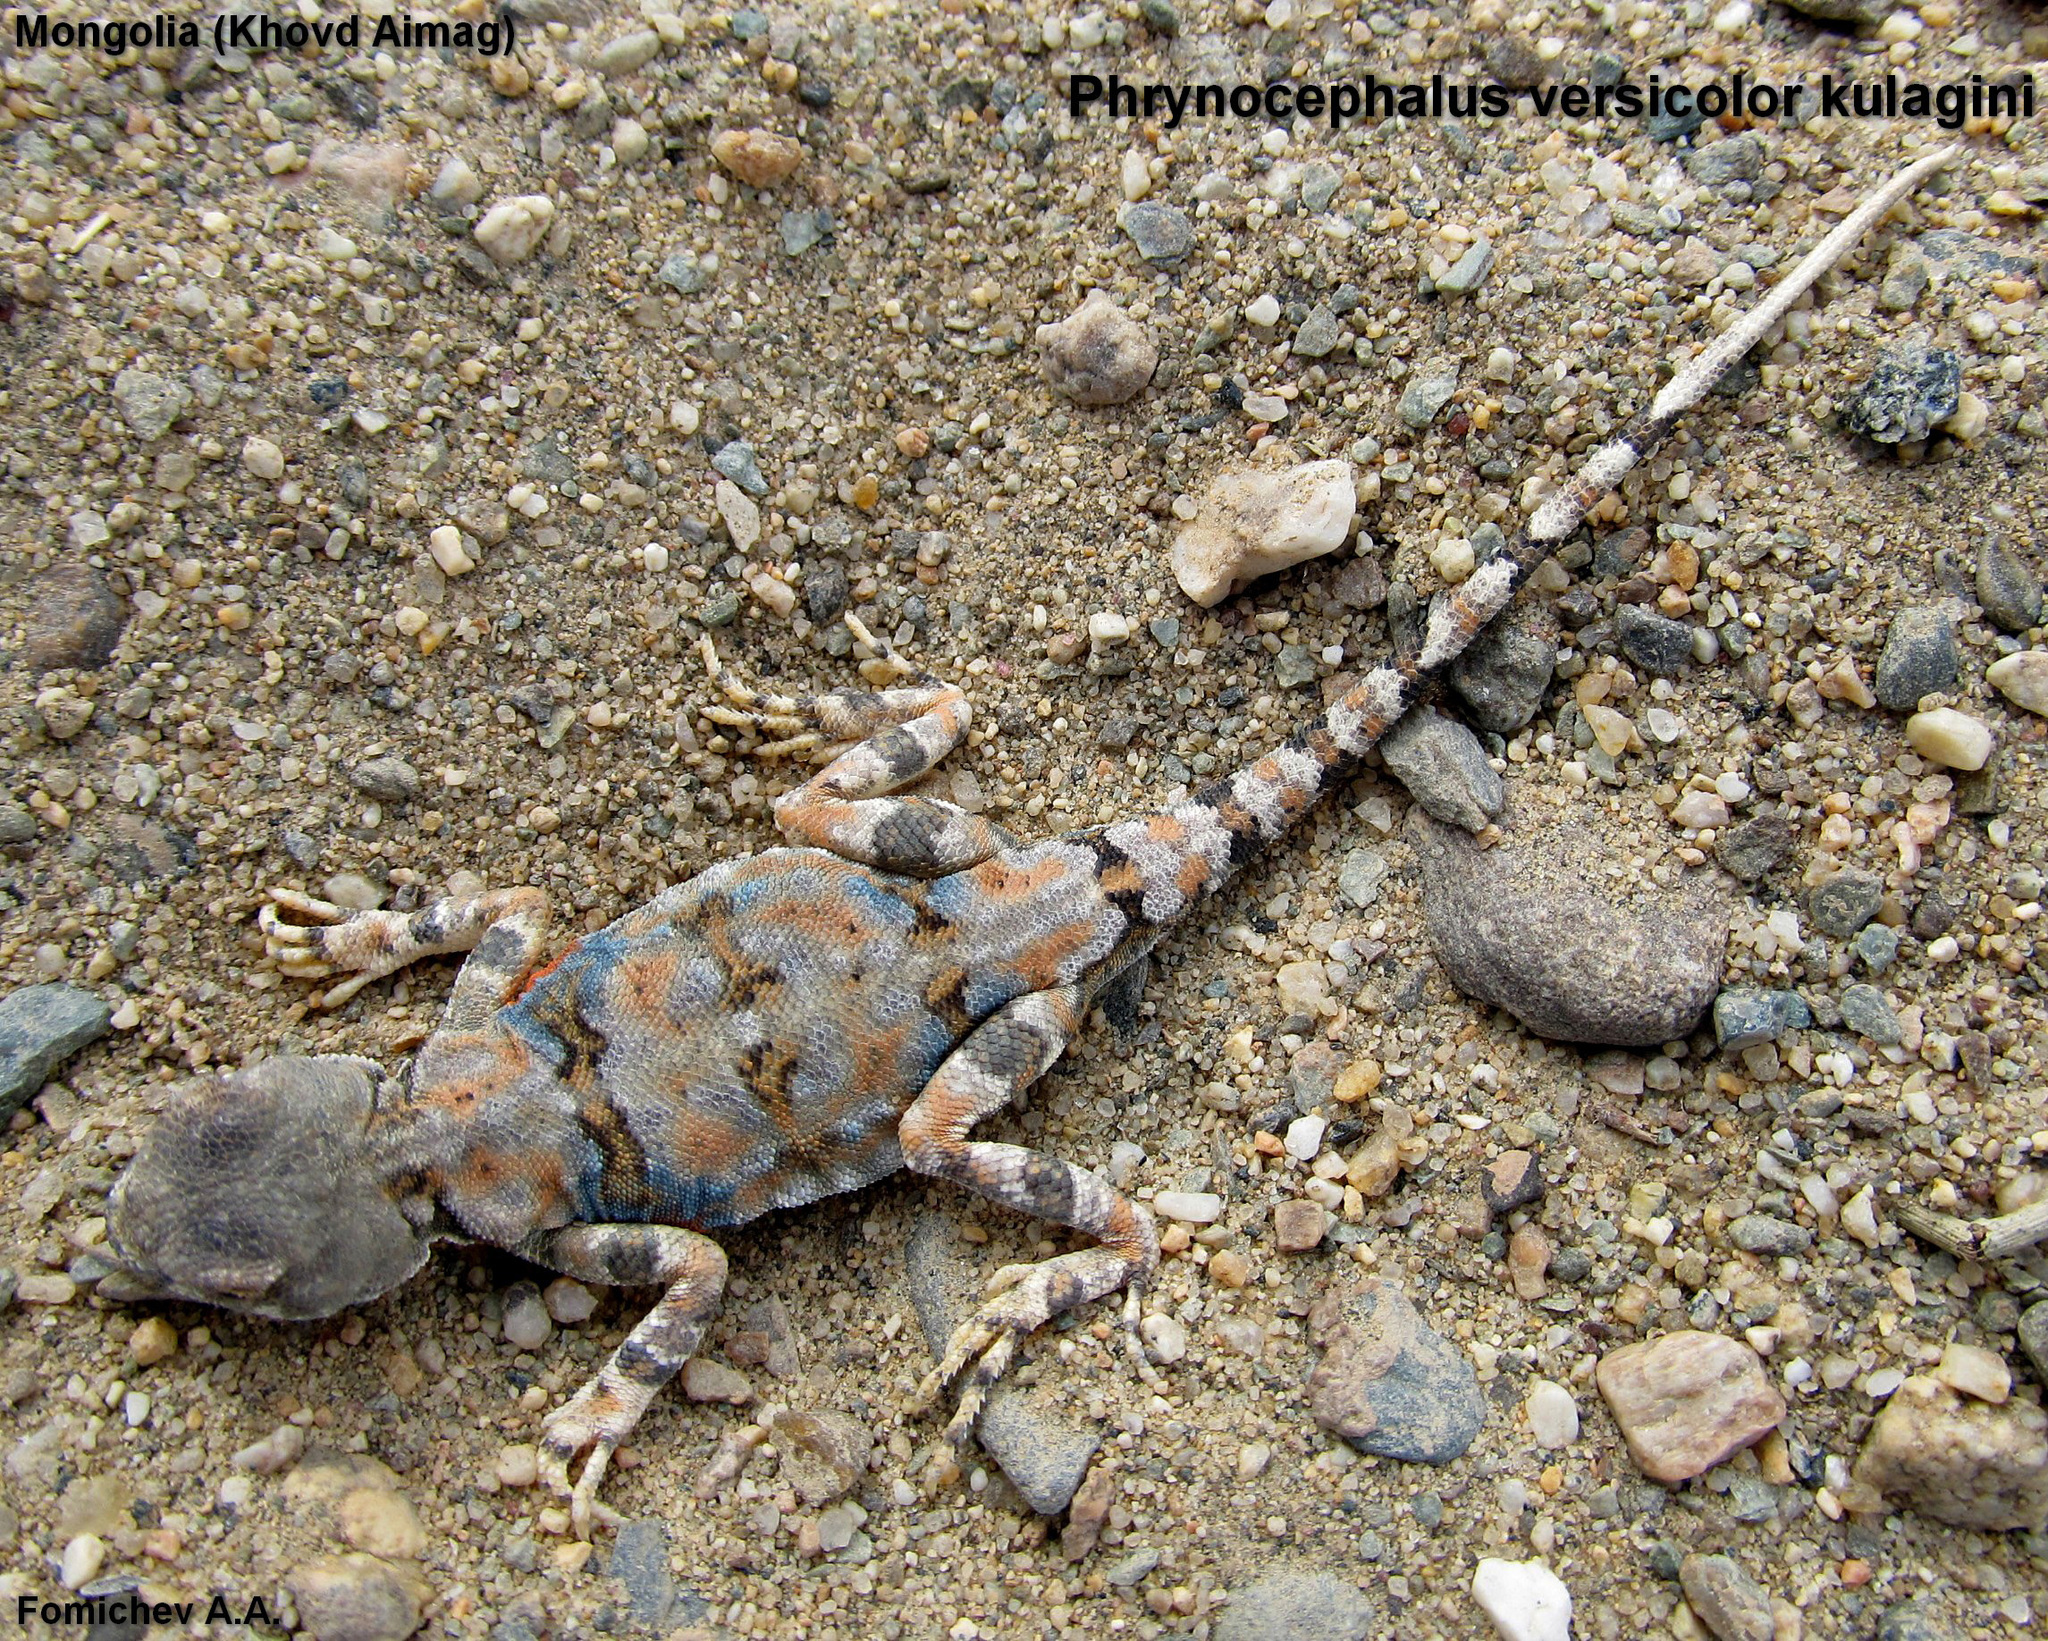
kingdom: Animalia
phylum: Chordata
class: Squamata
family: Agamidae
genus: Phrynocephalus
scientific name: Phrynocephalus versicolor
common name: Tuvan toad-headed agama
